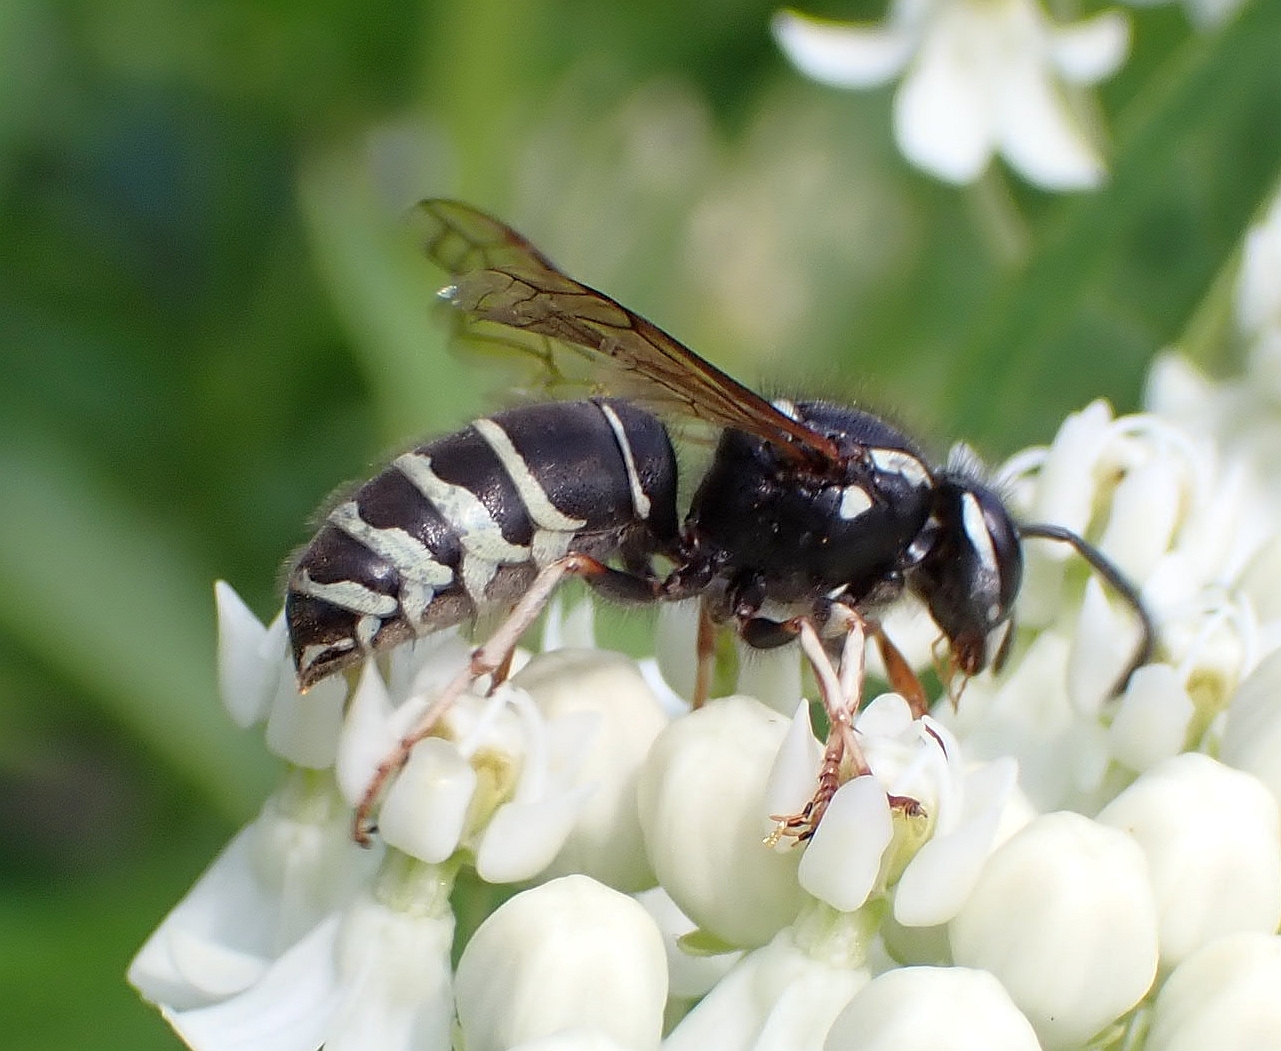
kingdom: Animalia
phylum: Arthropoda
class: Insecta
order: Hymenoptera
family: Vespidae
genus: Vespula
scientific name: Vespula consobrina
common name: Blackjacket
